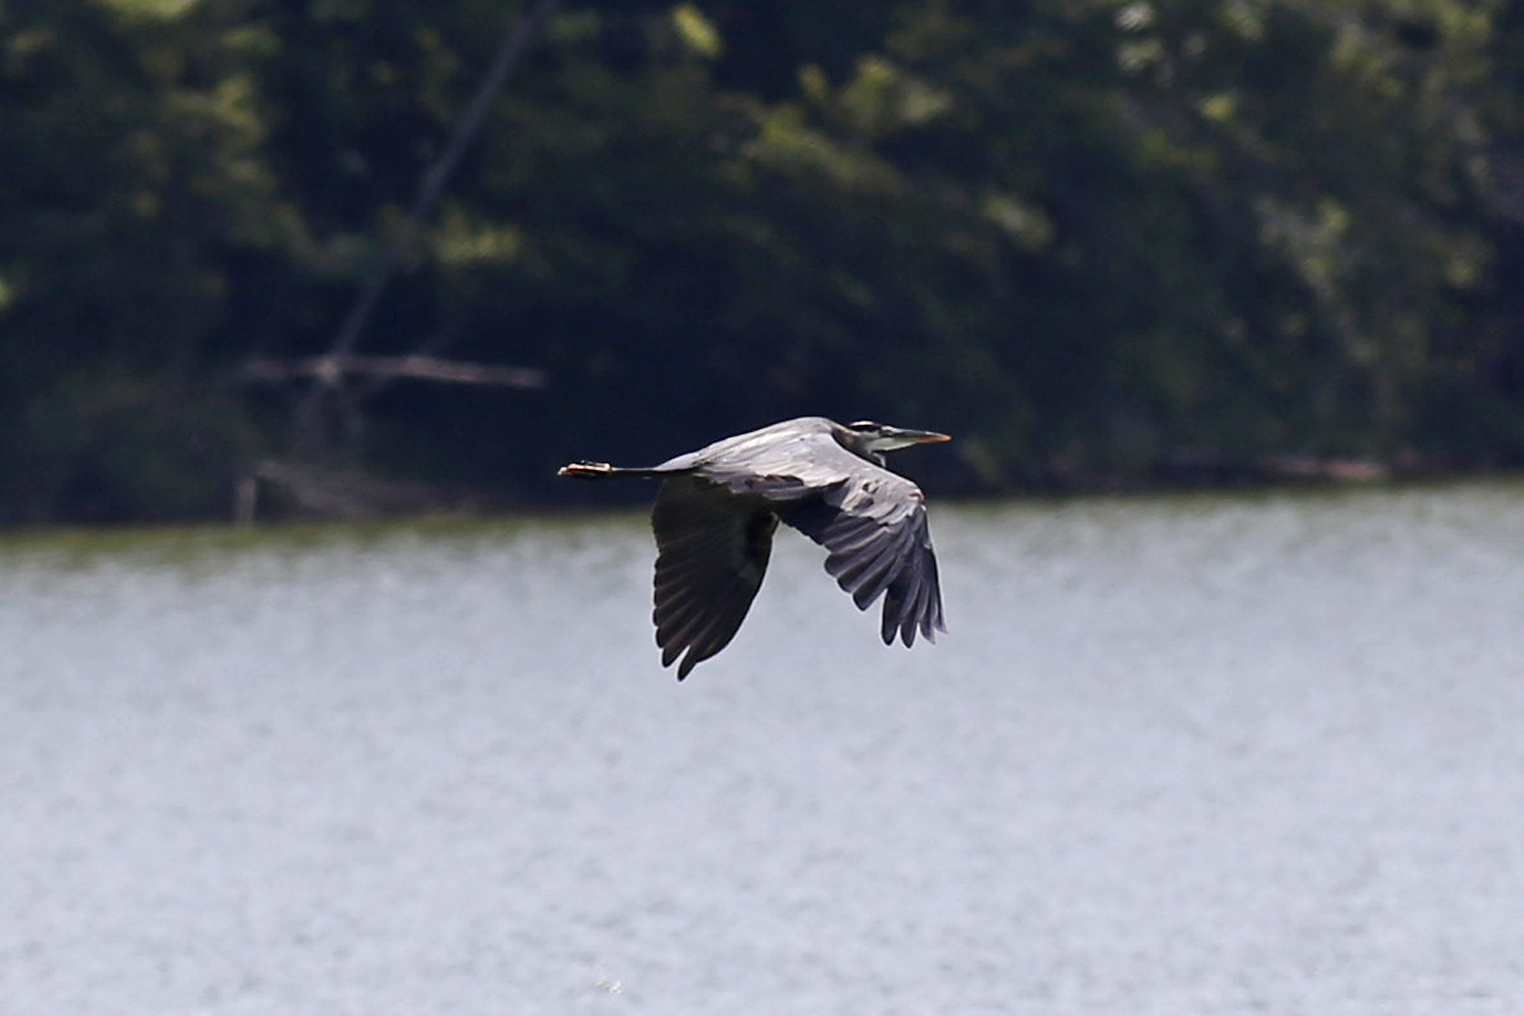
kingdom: Animalia
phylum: Chordata
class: Aves
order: Pelecaniformes
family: Ardeidae
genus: Ardea
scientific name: Ardea herodias
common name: Great blue heron
